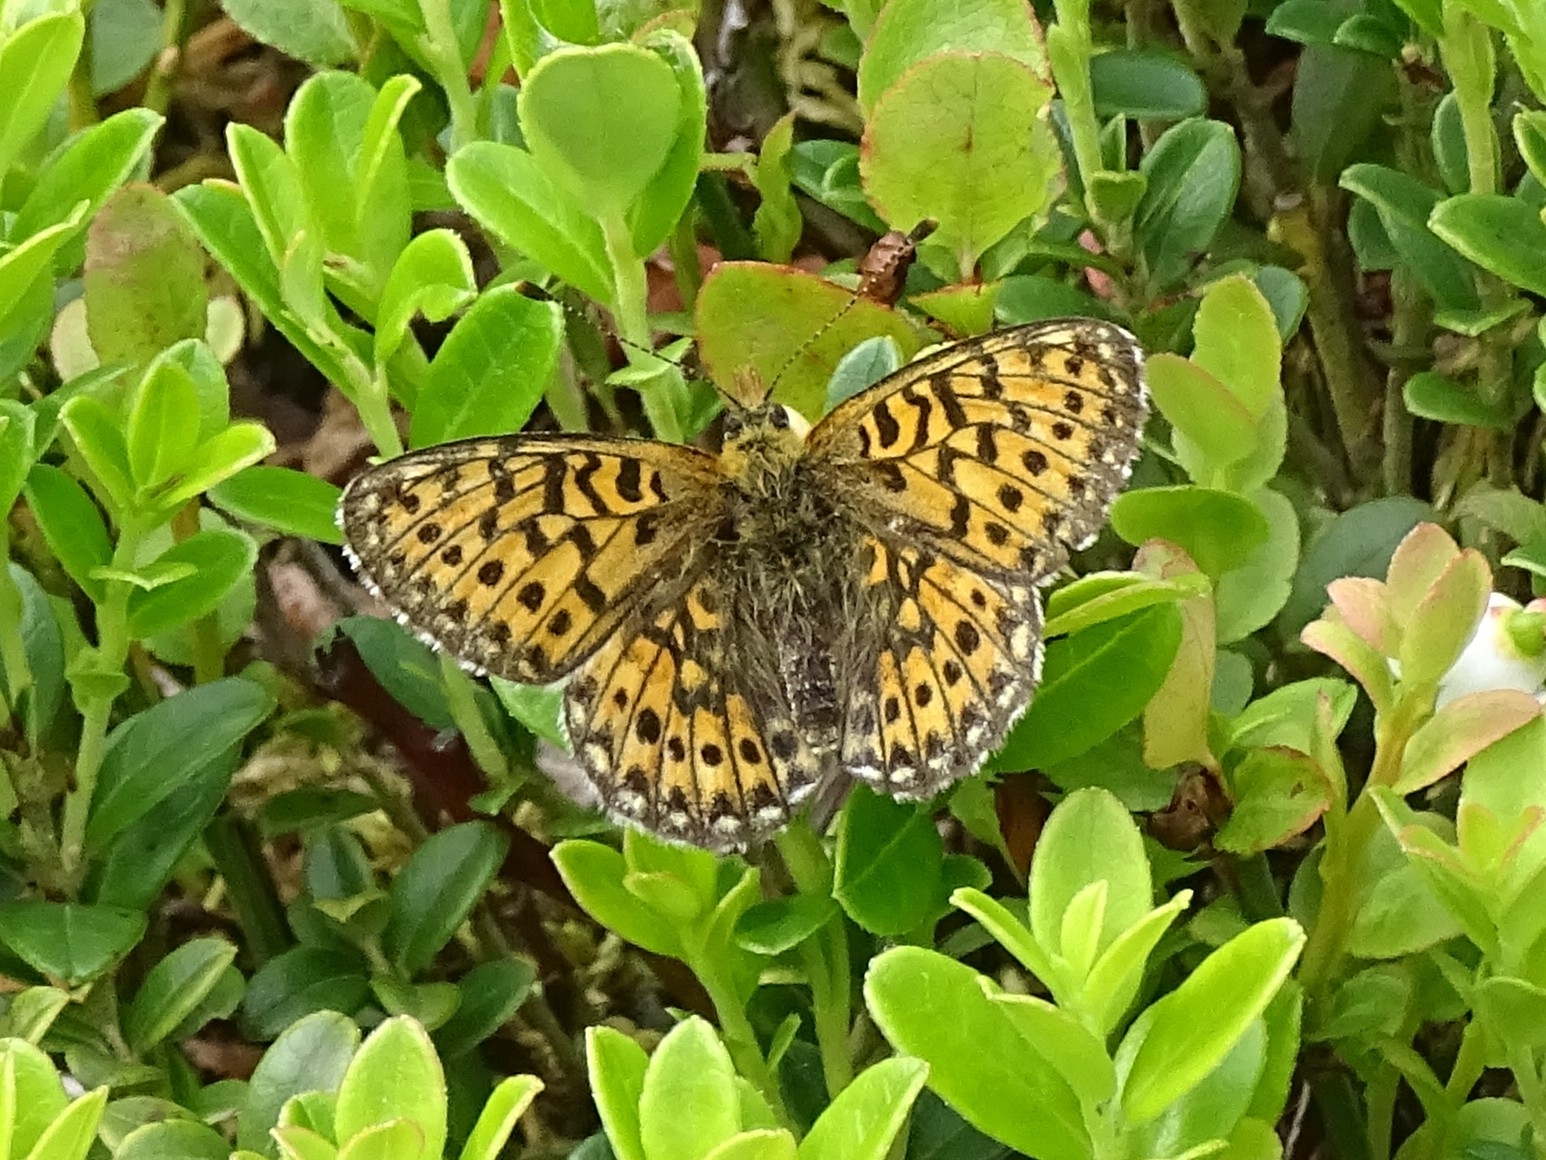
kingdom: Animalia
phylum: Arthropoda
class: Insecta
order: Lepidoptera
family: Nymphalidae
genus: Clossiana
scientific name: Clossiana euphrosyne
